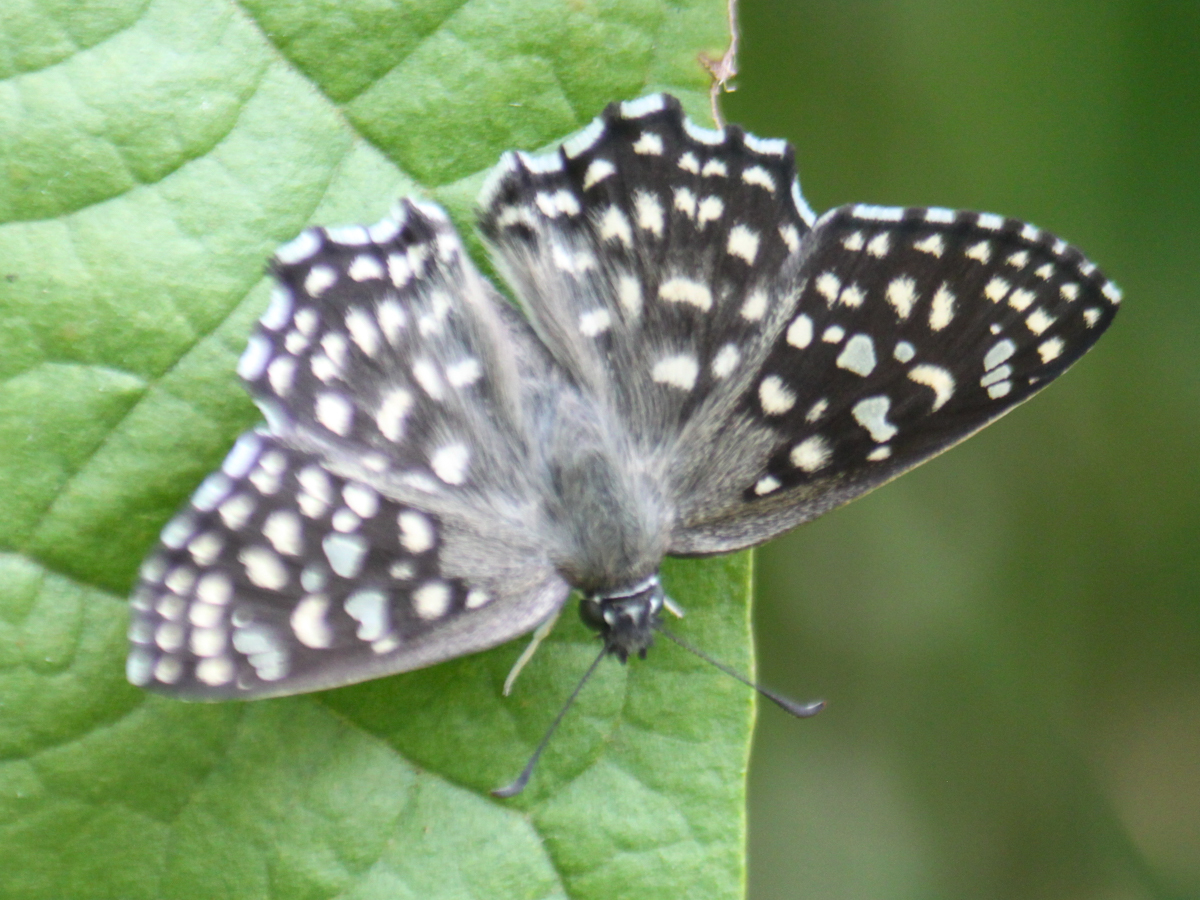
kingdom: Animalia
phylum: Arthropoda
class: Insecta
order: Lepidoptera
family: Hesperiidae
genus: Caprona
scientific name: Caprona agama
